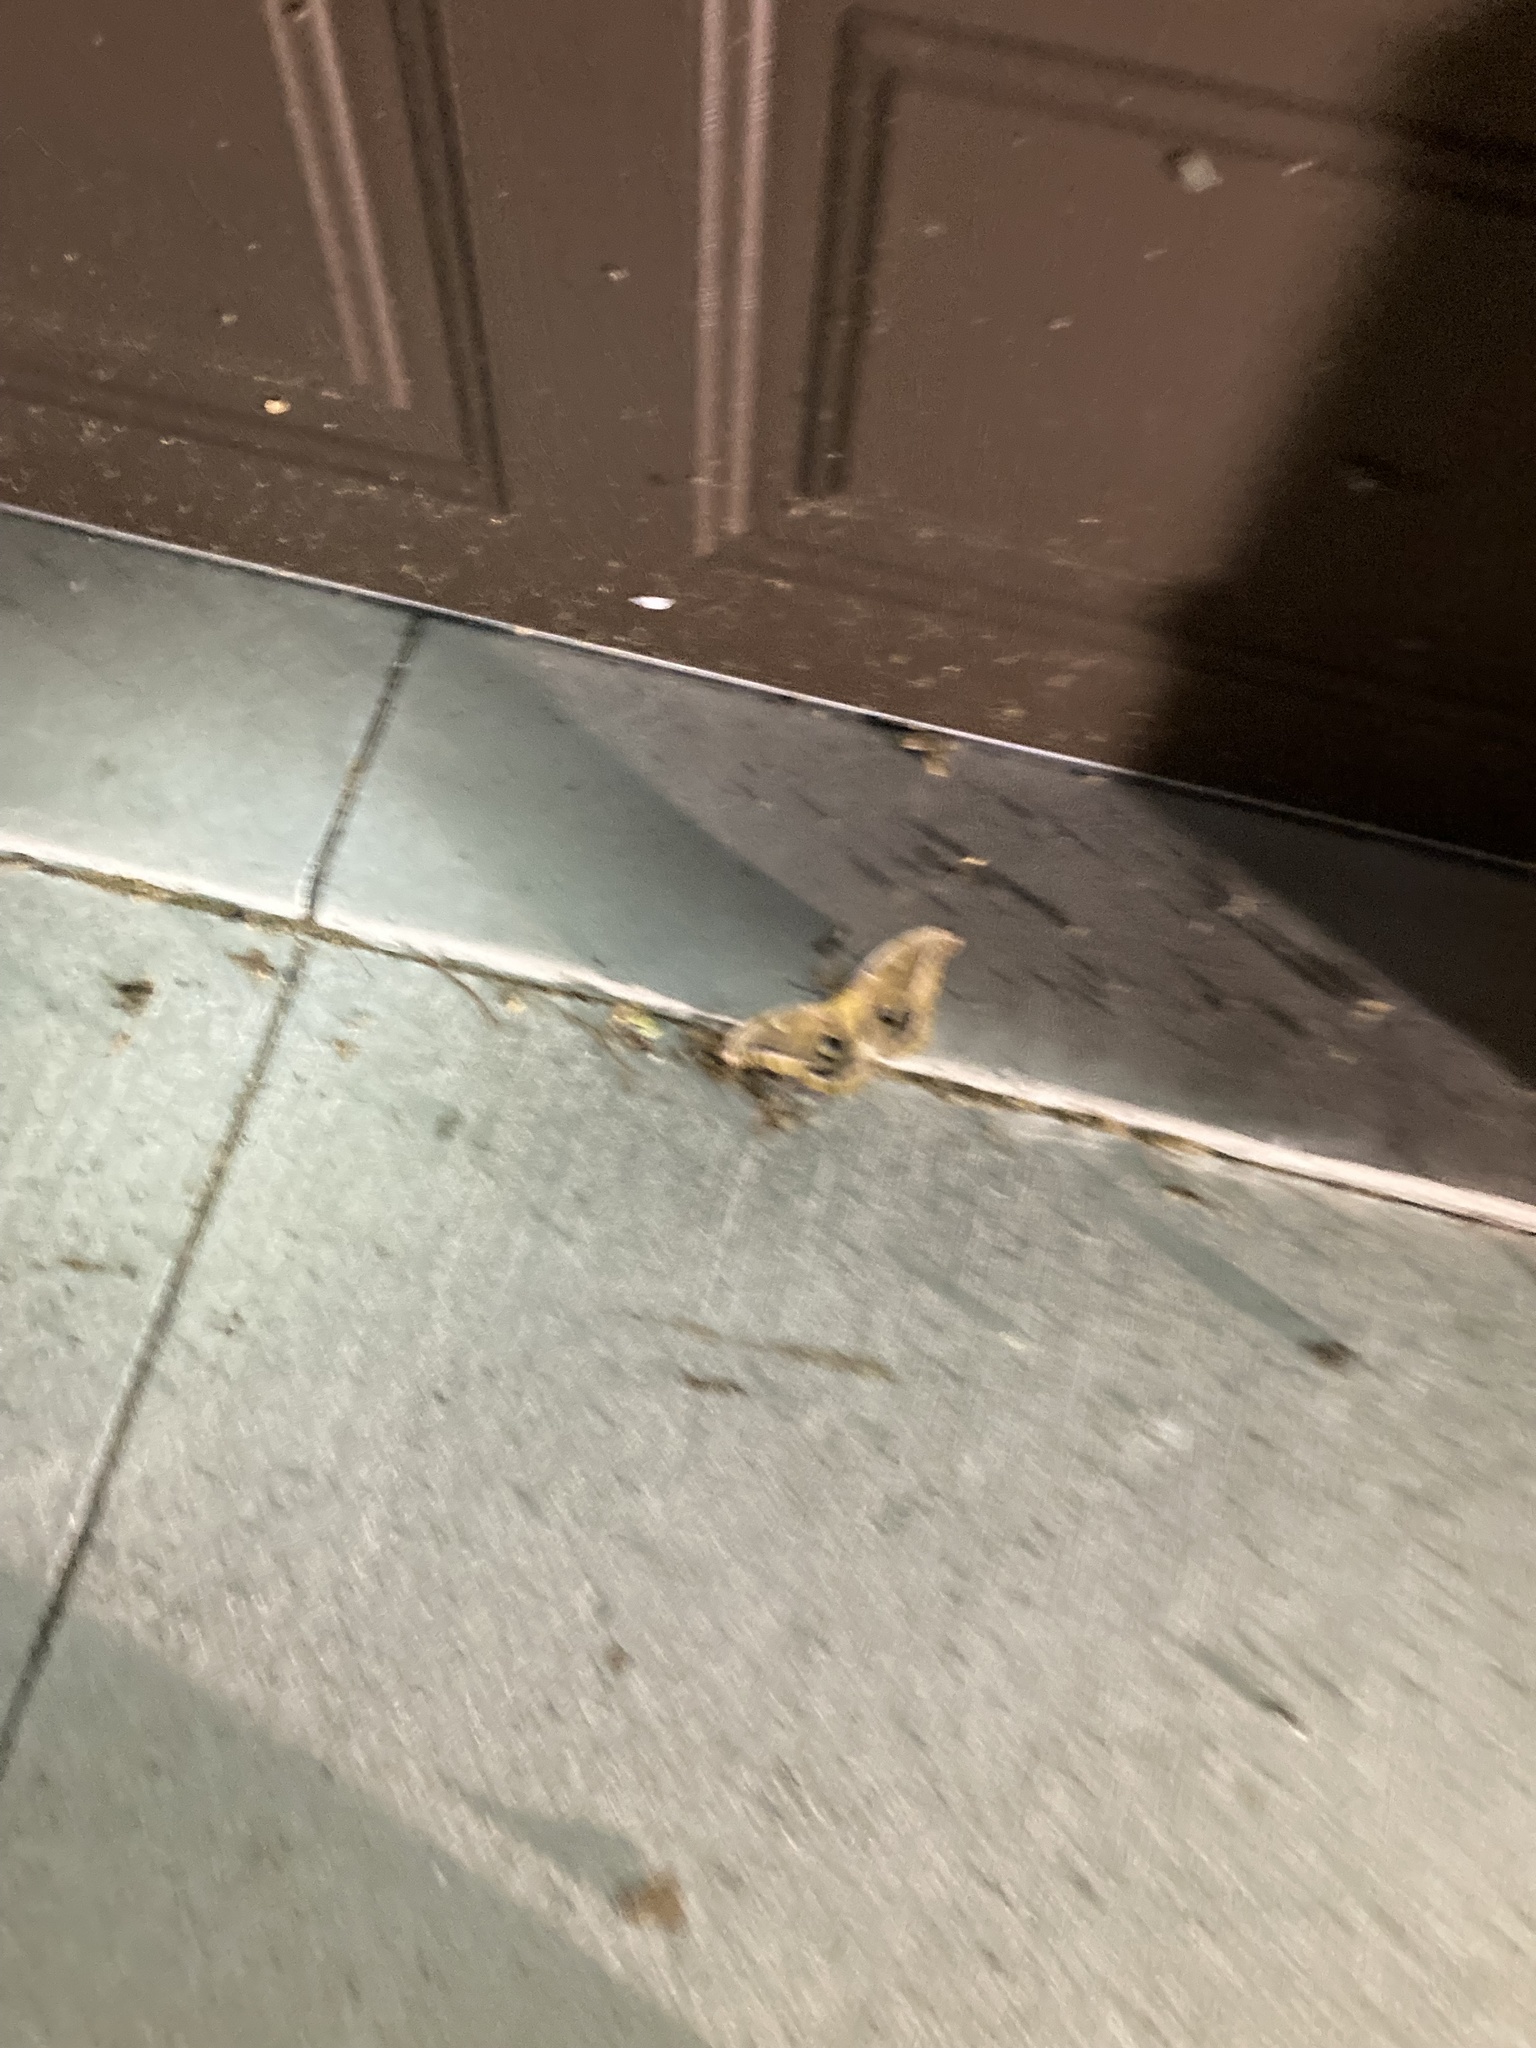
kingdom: Animalia
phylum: Arthropoda
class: Insecta
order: Lepidoptera
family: Saturniidae
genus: Antheraea
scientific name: Antheraea polyphemus
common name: Polyphemus moth
